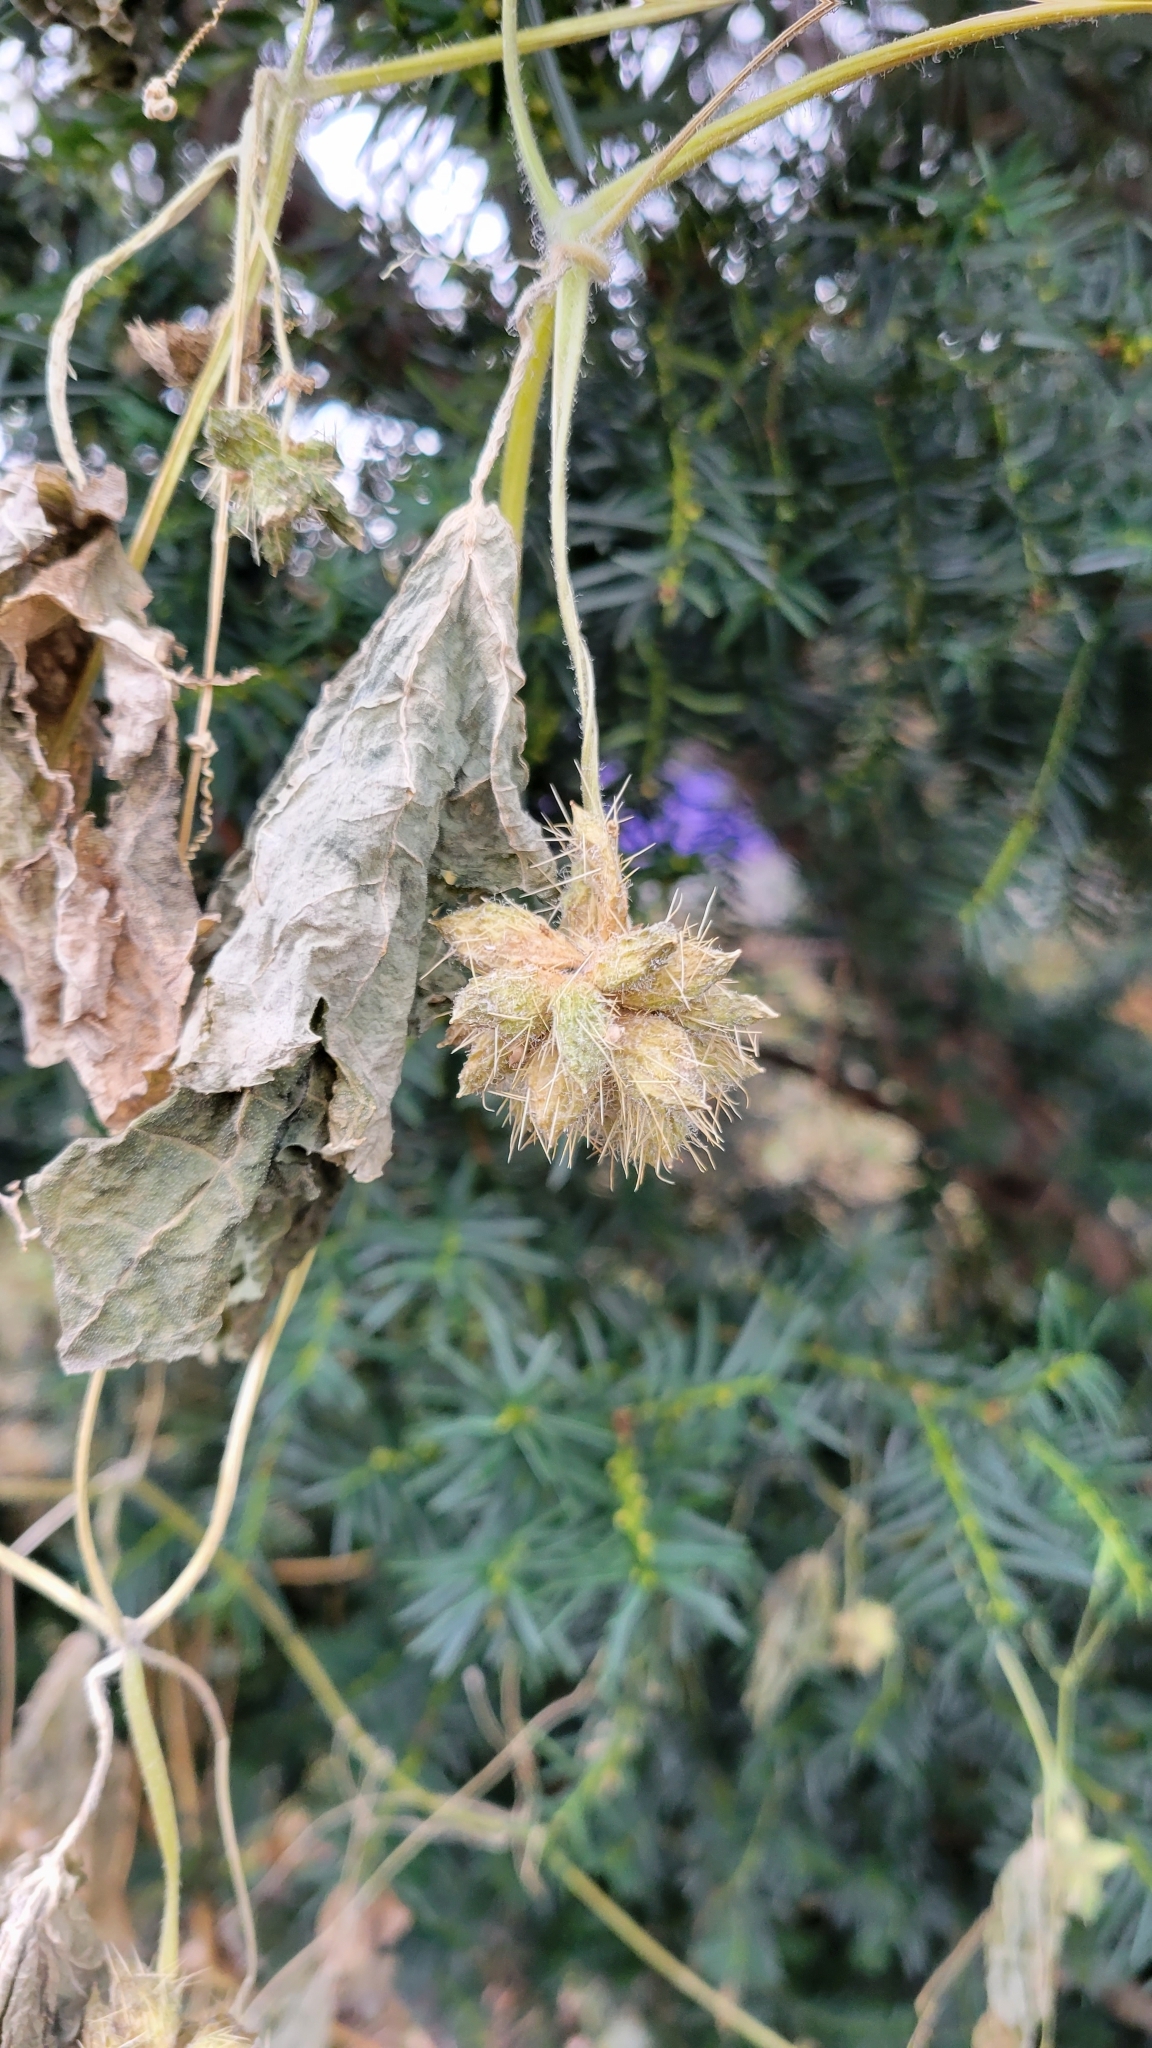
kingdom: Plantae
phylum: Tracheophyta
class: Magnoliopsida
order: Cucurbitales
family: Cucurbitaceae
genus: Sicyos
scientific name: Sicyos angulatus
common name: Angled burr cucumber
